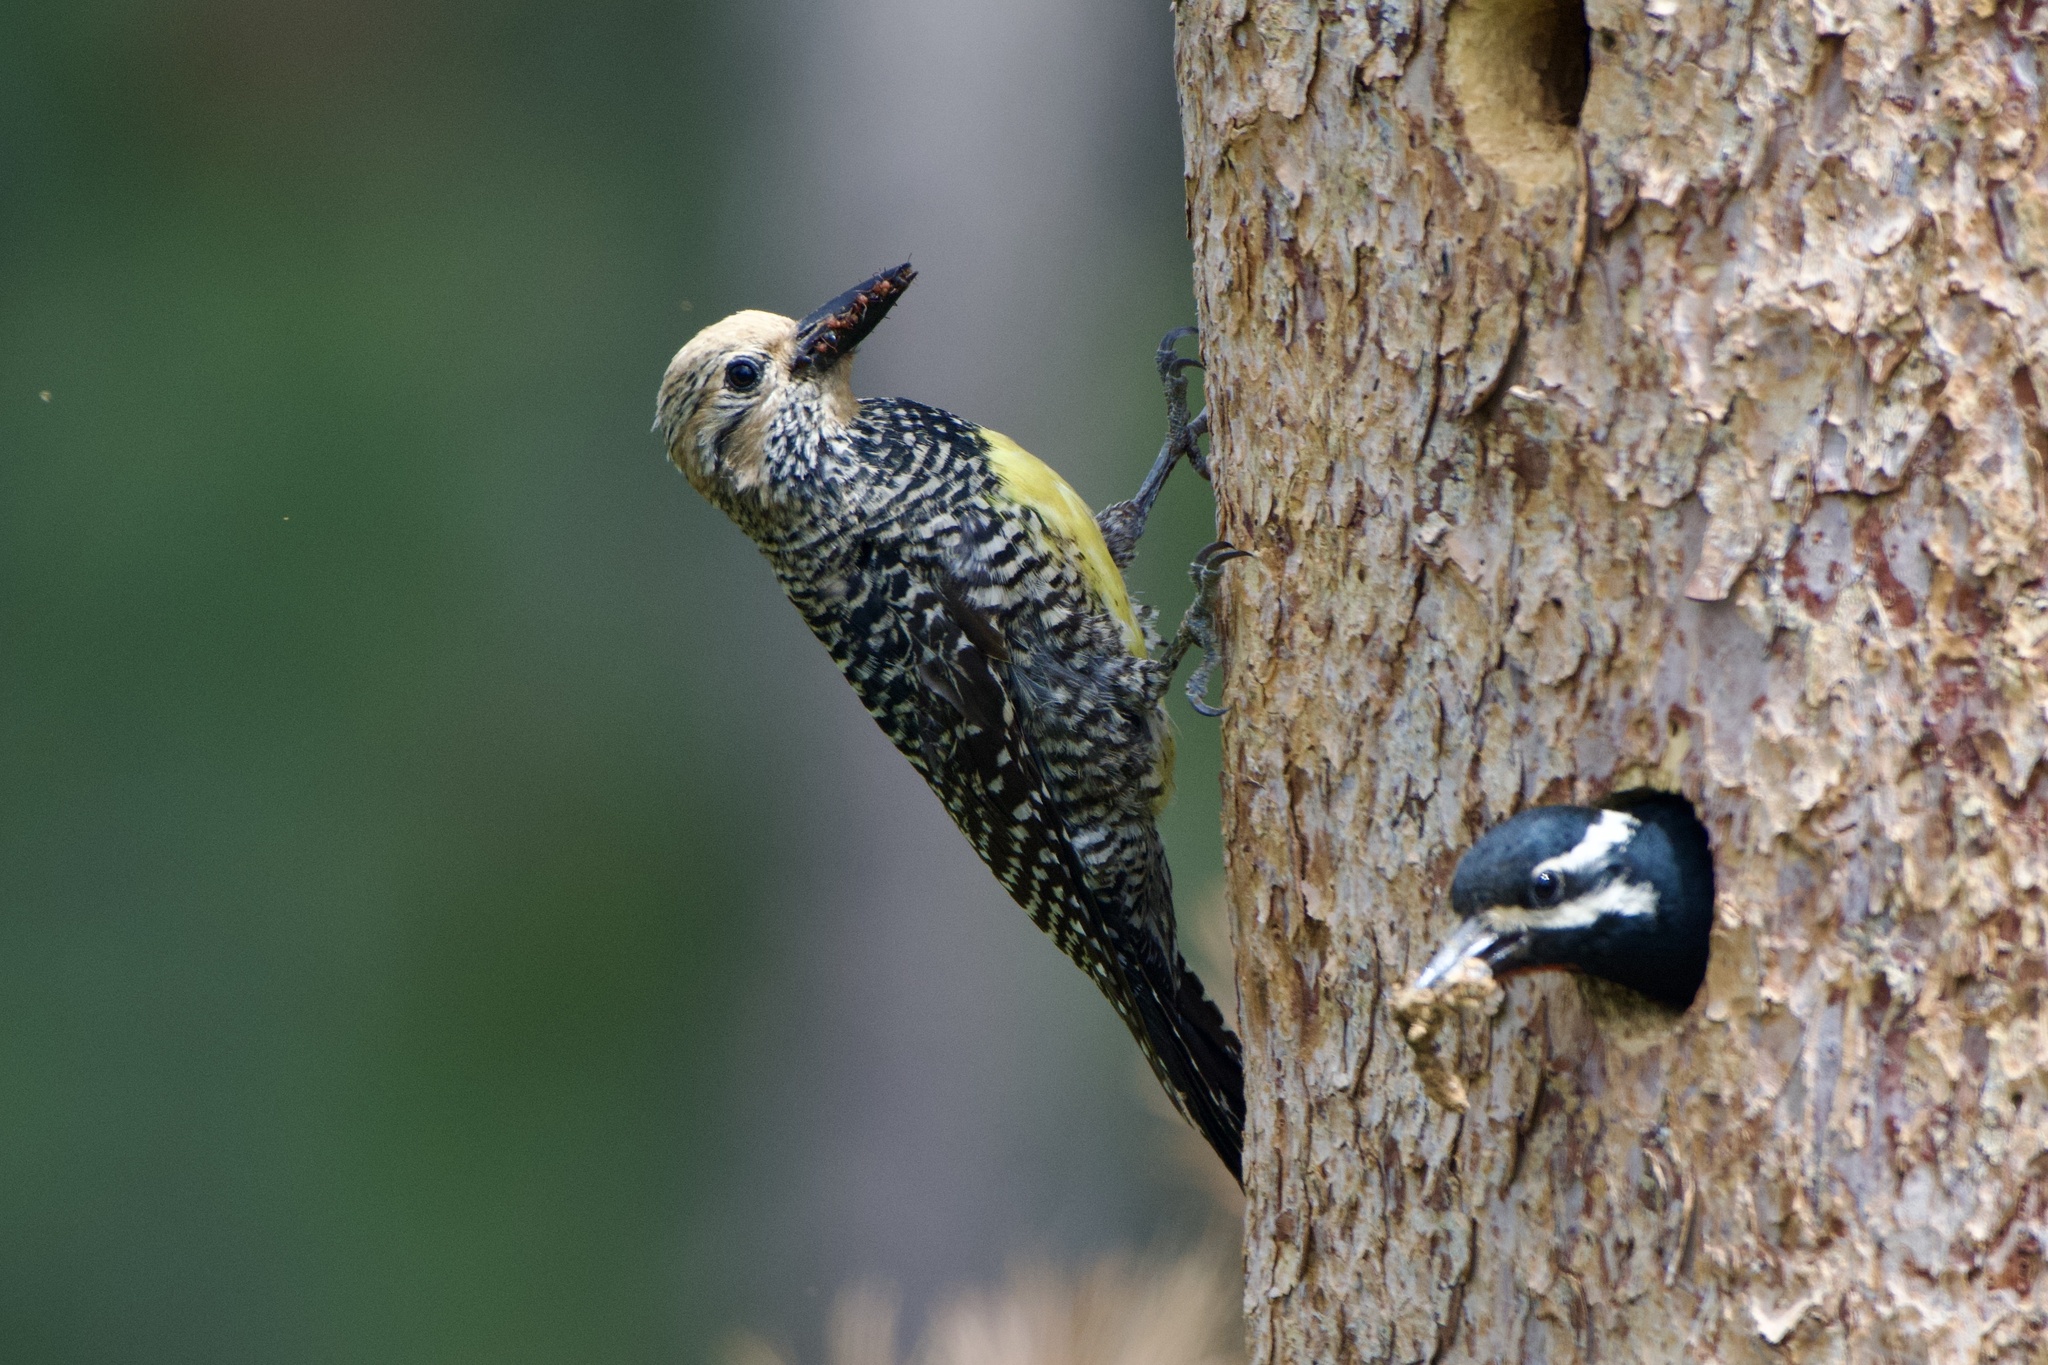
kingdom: Animalia
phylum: Chordata
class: Aves
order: Piciformes
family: Picidae
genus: Sphyrapicus
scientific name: Sphyrapicus thyroideus
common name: Williamson's sapsucker
